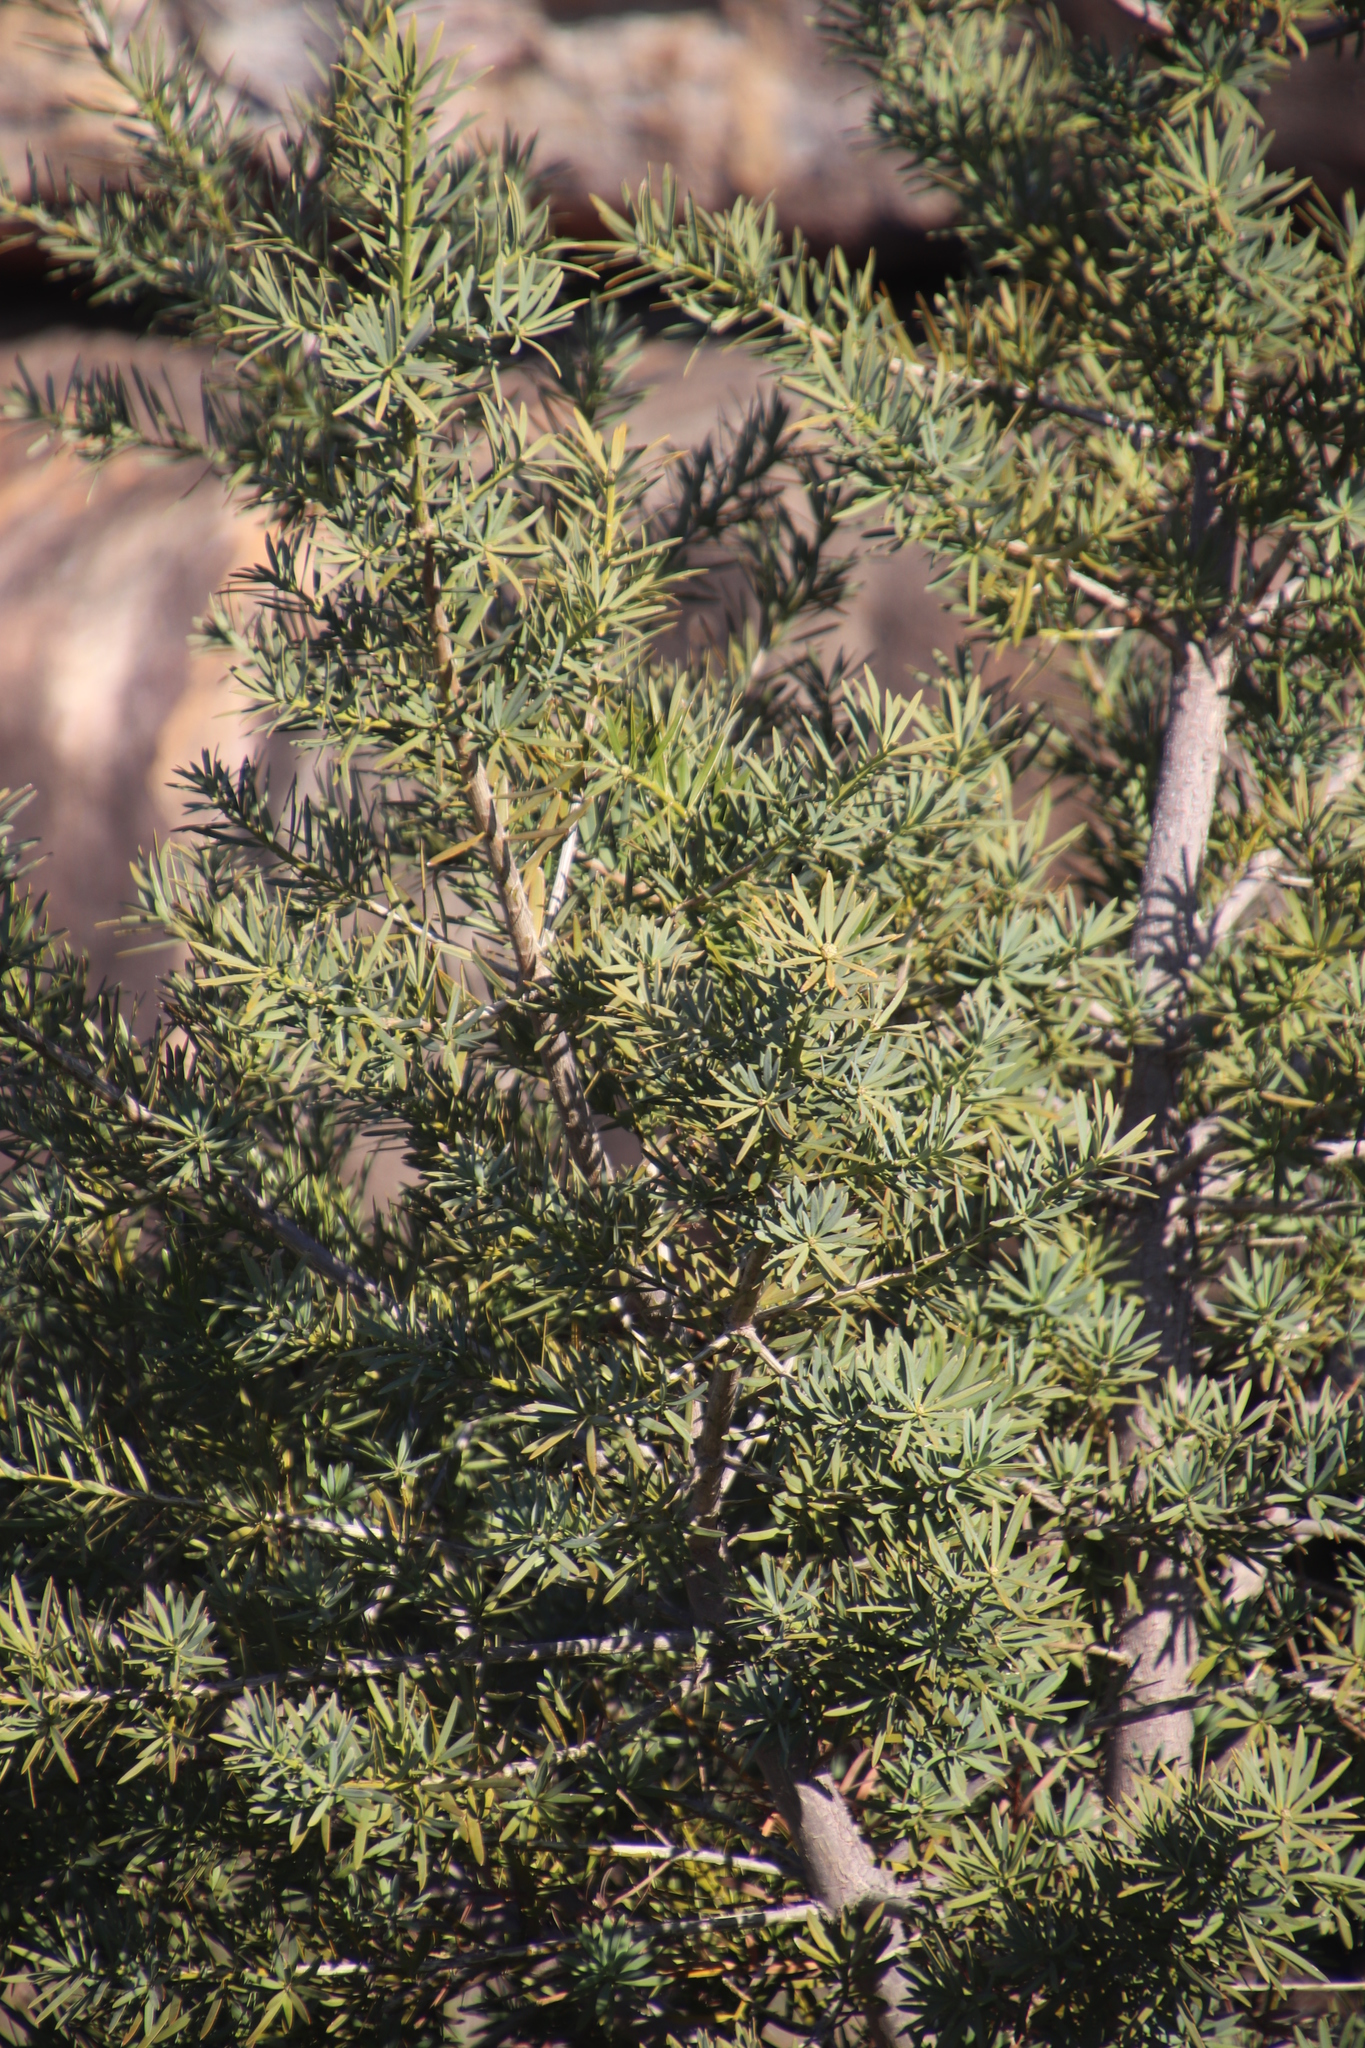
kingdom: Plantae
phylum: Tracheophyta
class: Pinopsida
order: Pinales
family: Podocarpaceae
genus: Podocarpus
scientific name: Podocarpus elongatus
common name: Breede river yellowwood
